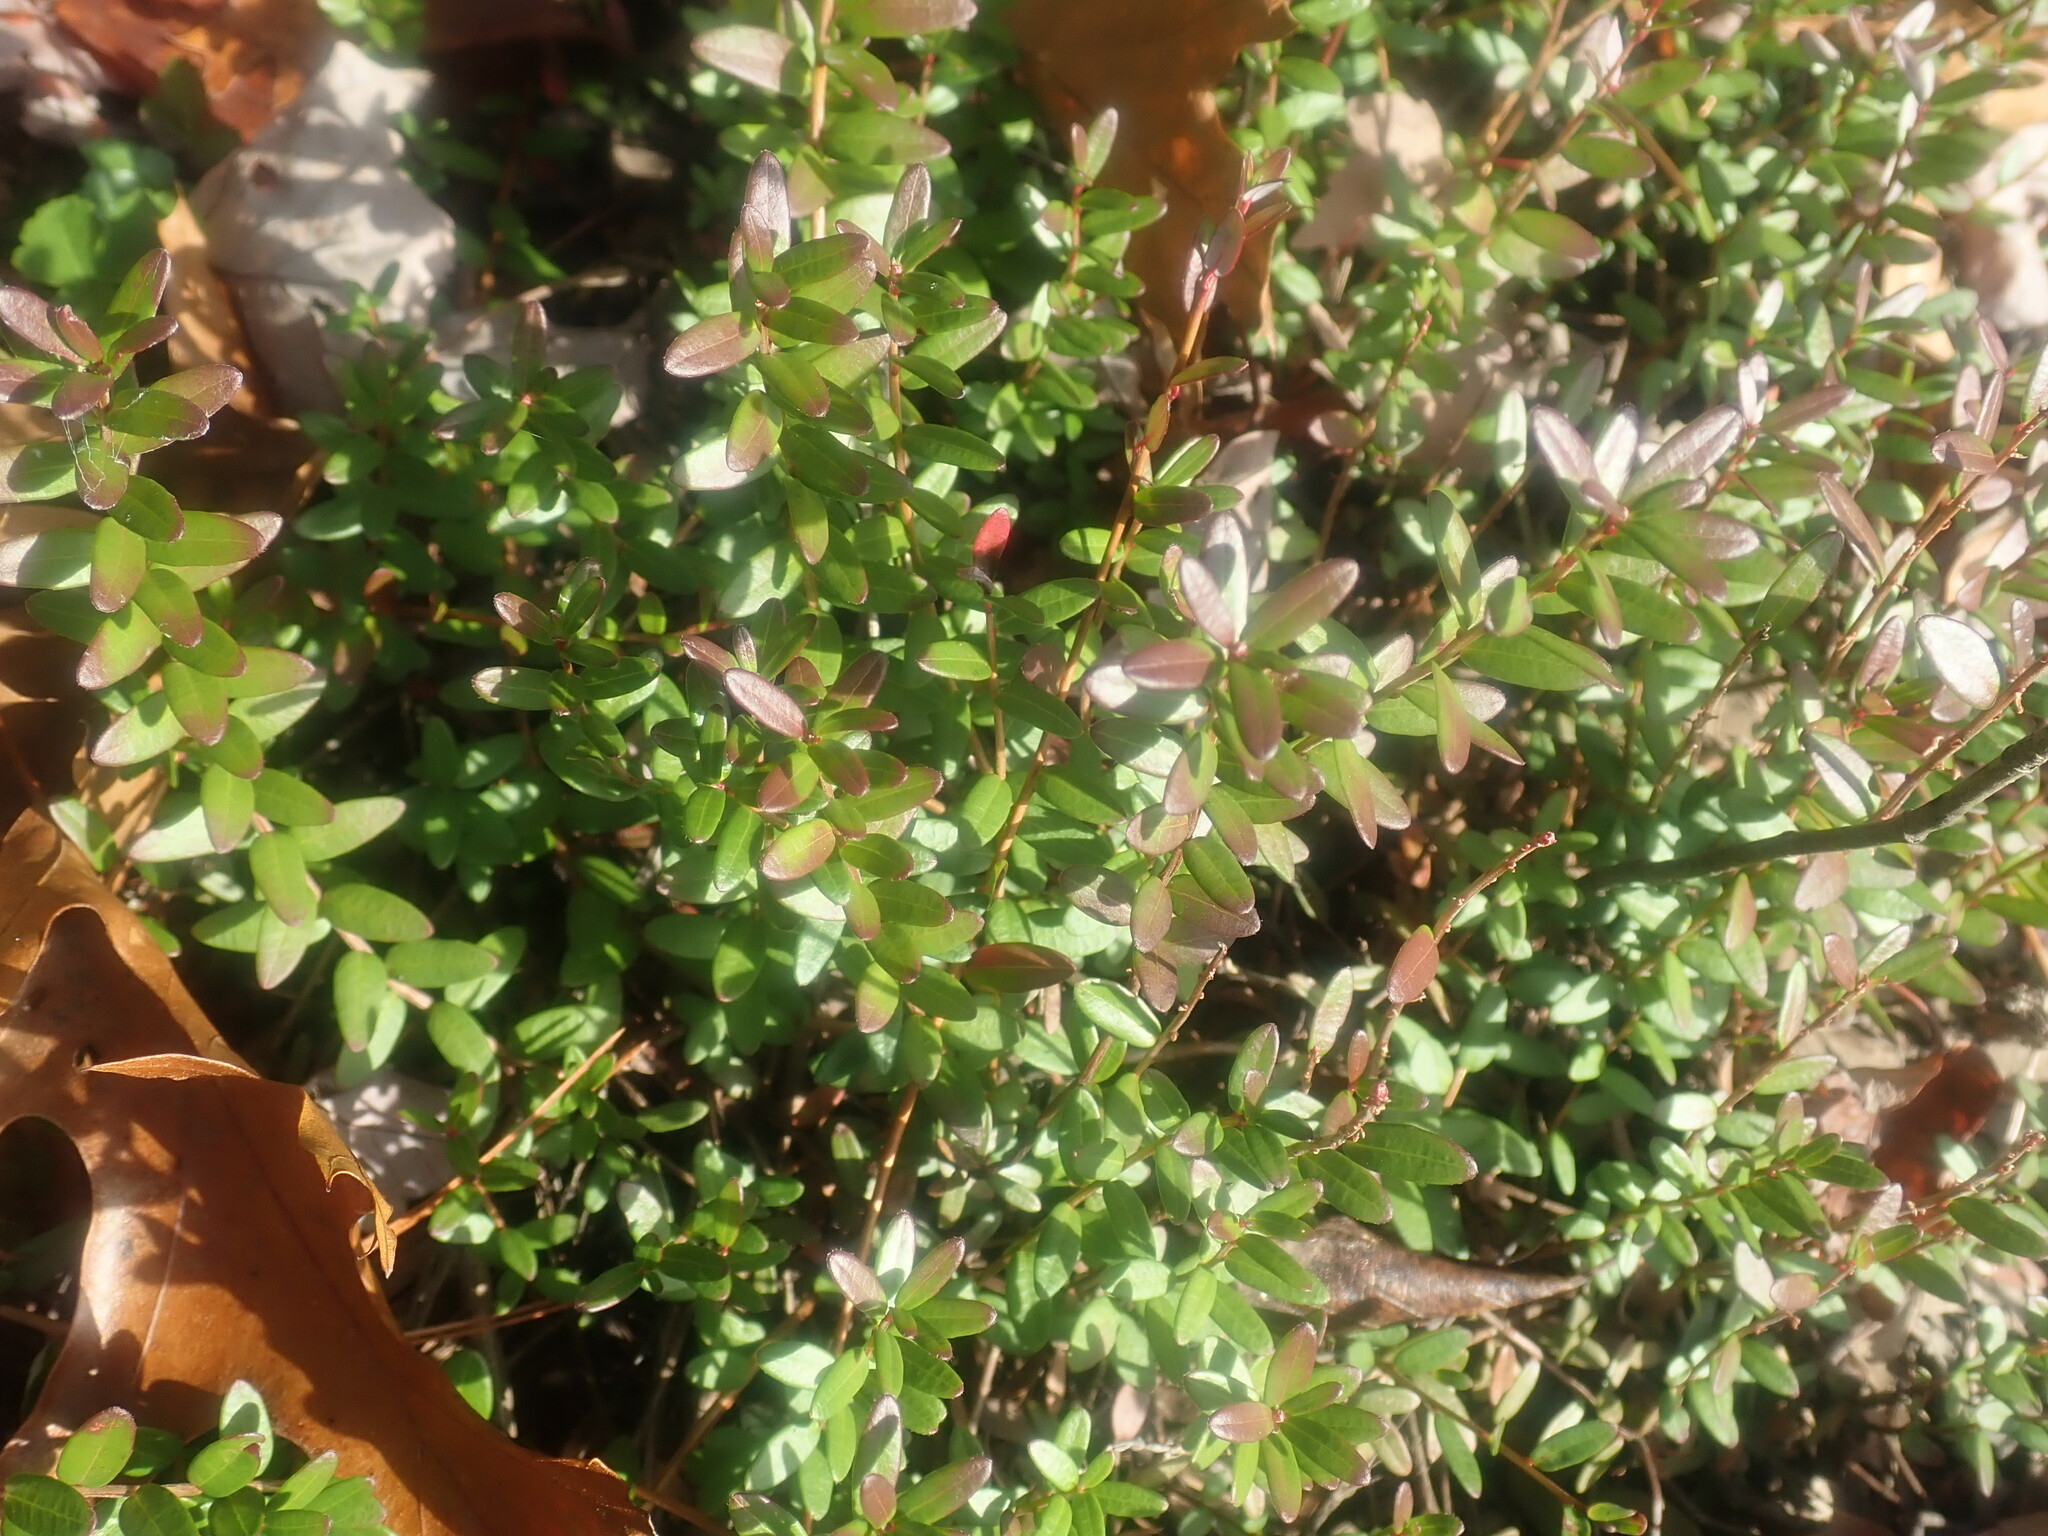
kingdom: Plantae
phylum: Tracheophyta
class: Magnoliopsida
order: Ericales
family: Ericaceae
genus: Vaccinium
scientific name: Vaccinium macrocarpon
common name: American cranberry
